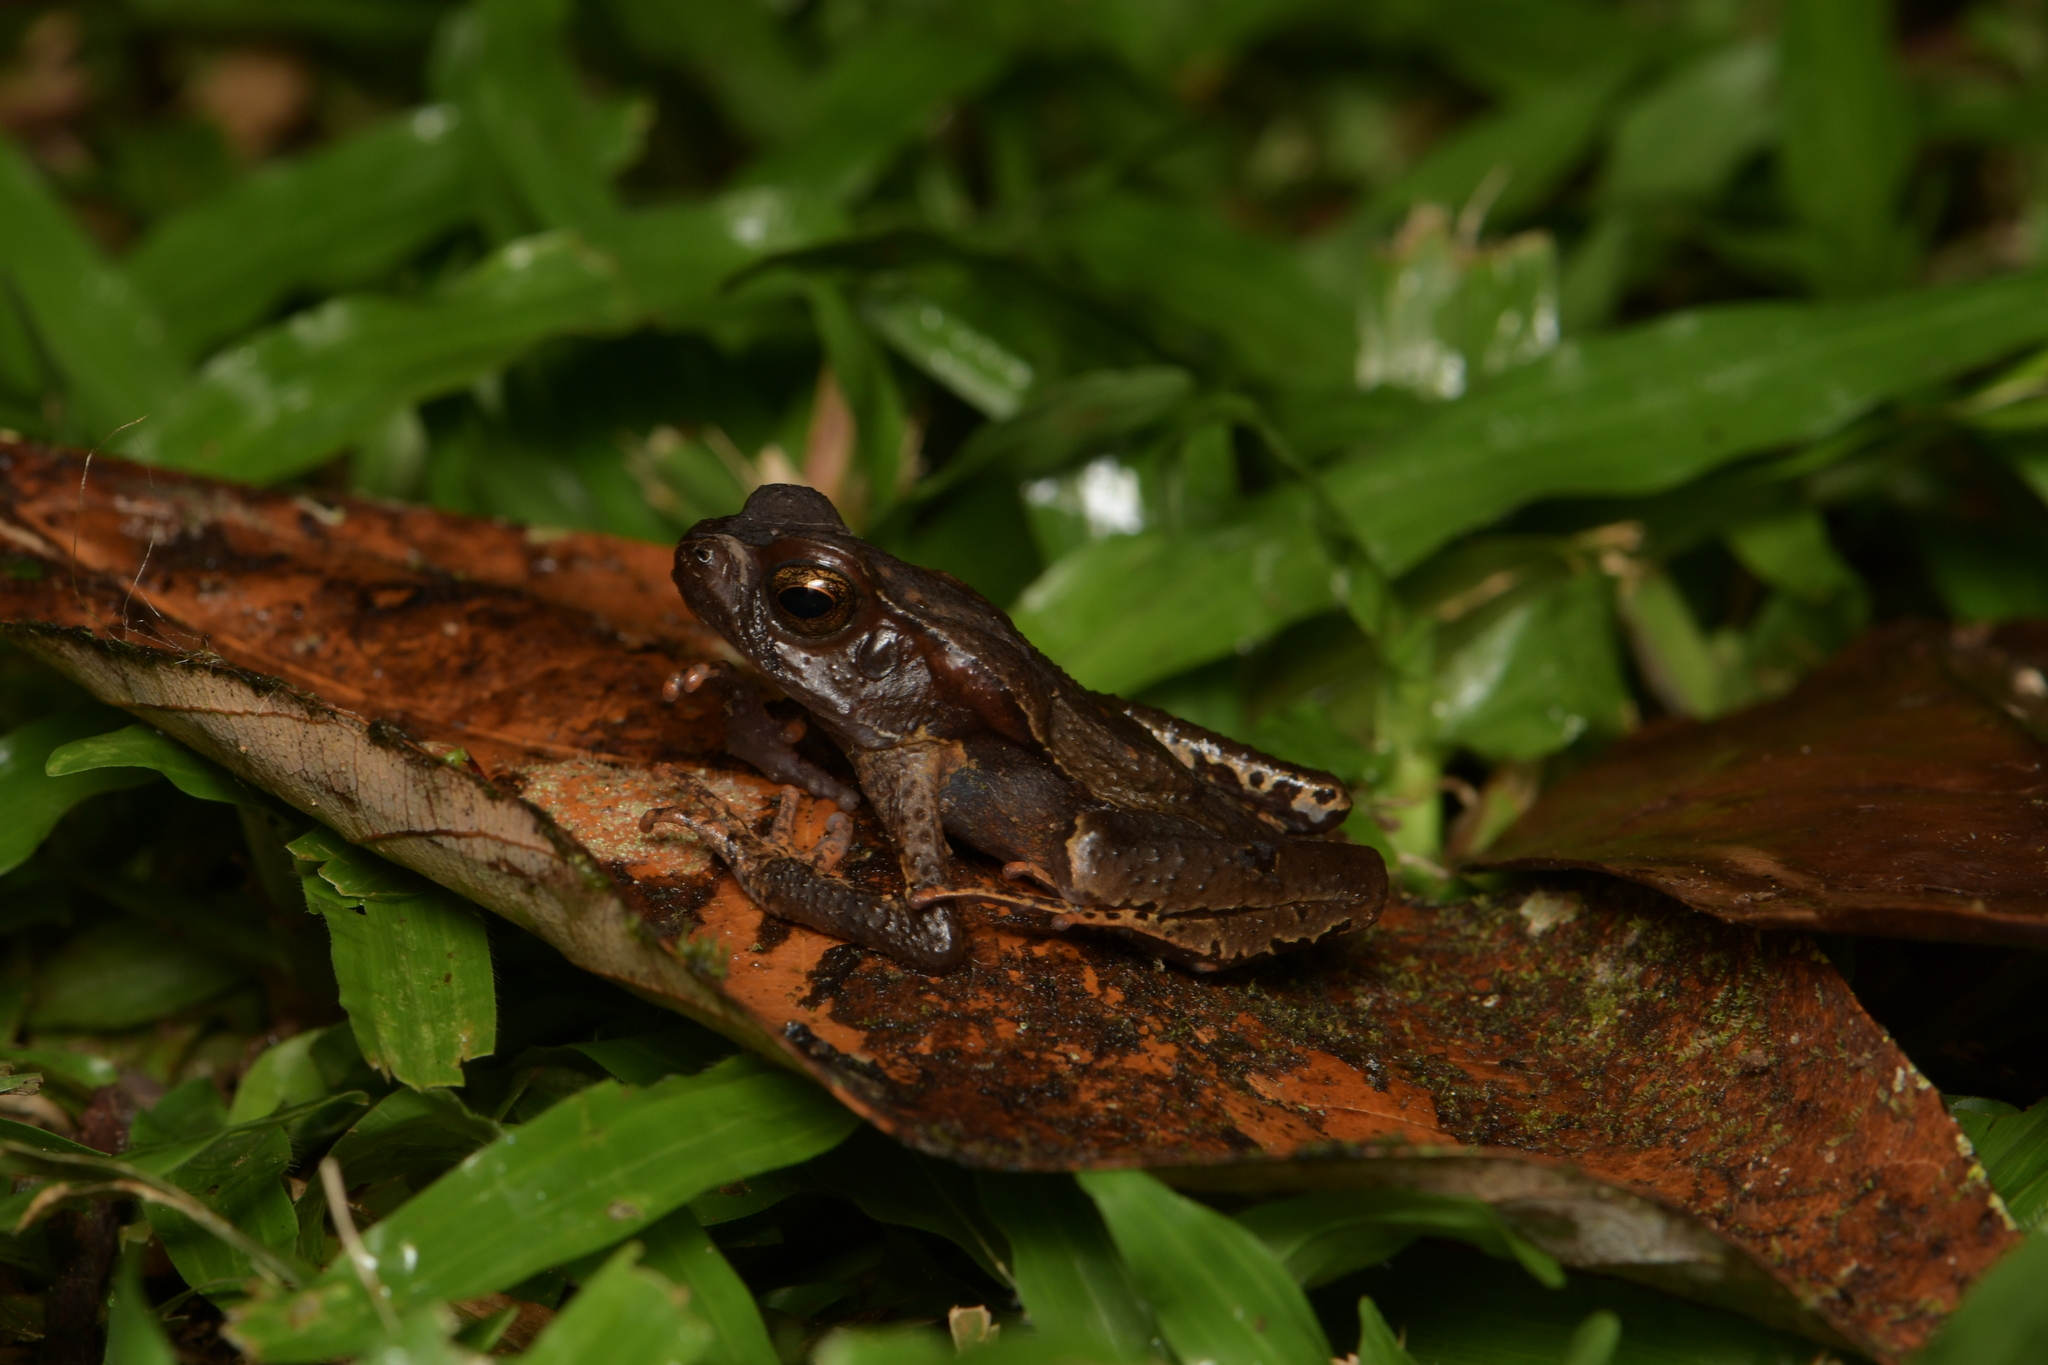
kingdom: Animalia
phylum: Chordata
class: Amphibia
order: Anura
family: Bufonidae
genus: Rhaebo
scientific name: Rhaebo haematiticus
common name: Truando toad
